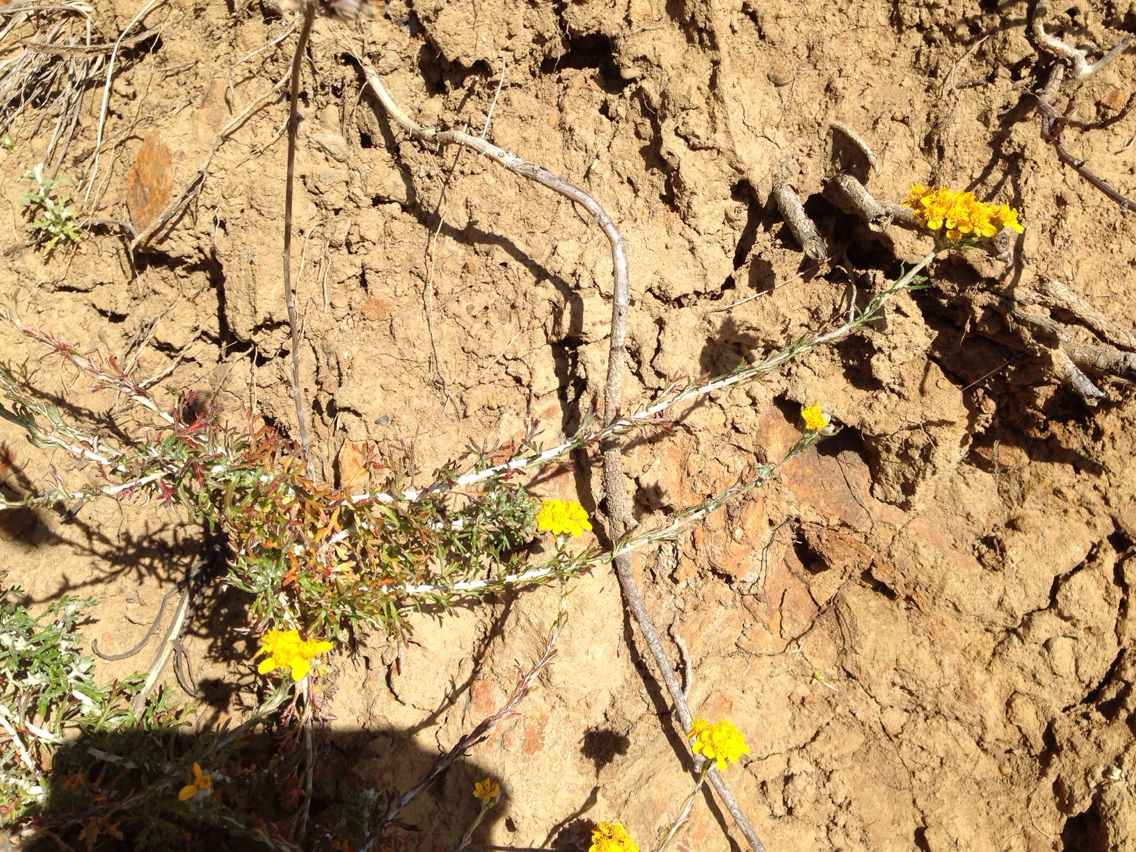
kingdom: Plantae
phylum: Tracheophyta
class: Magnoliopsida
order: Asterales
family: Asteraceae
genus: Eriophyllum
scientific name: Eriophyllum confertiflorum
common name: Golden-yarrow
